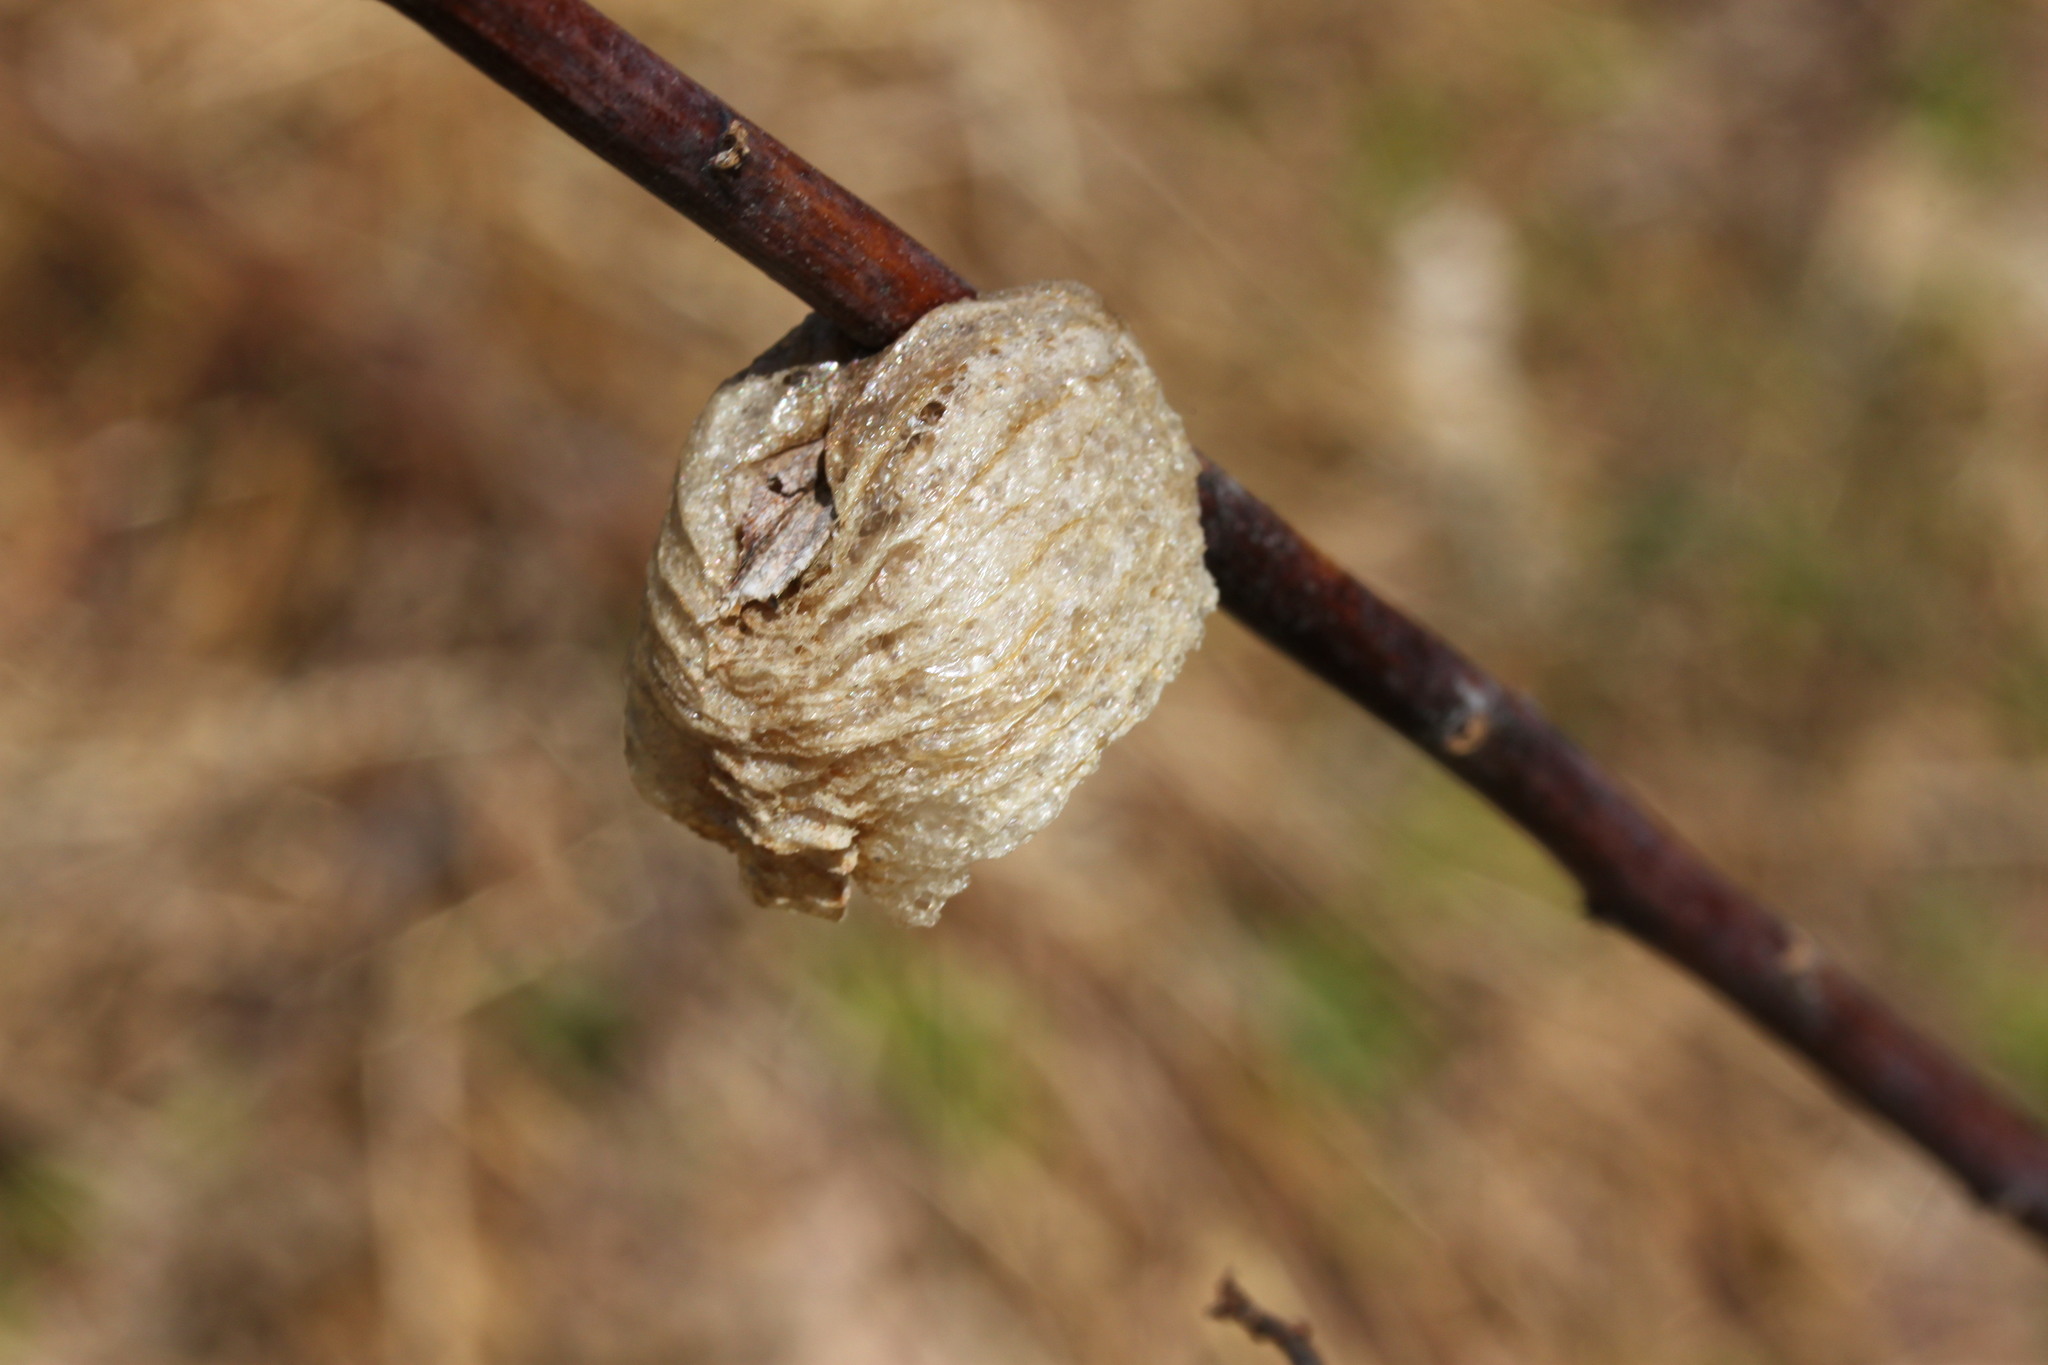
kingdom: Animalia
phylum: Arthropoda
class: Insecta
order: Mantodea
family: Mantidae
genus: Tenodera
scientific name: Tenodera sinensis
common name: Chinese mantis
